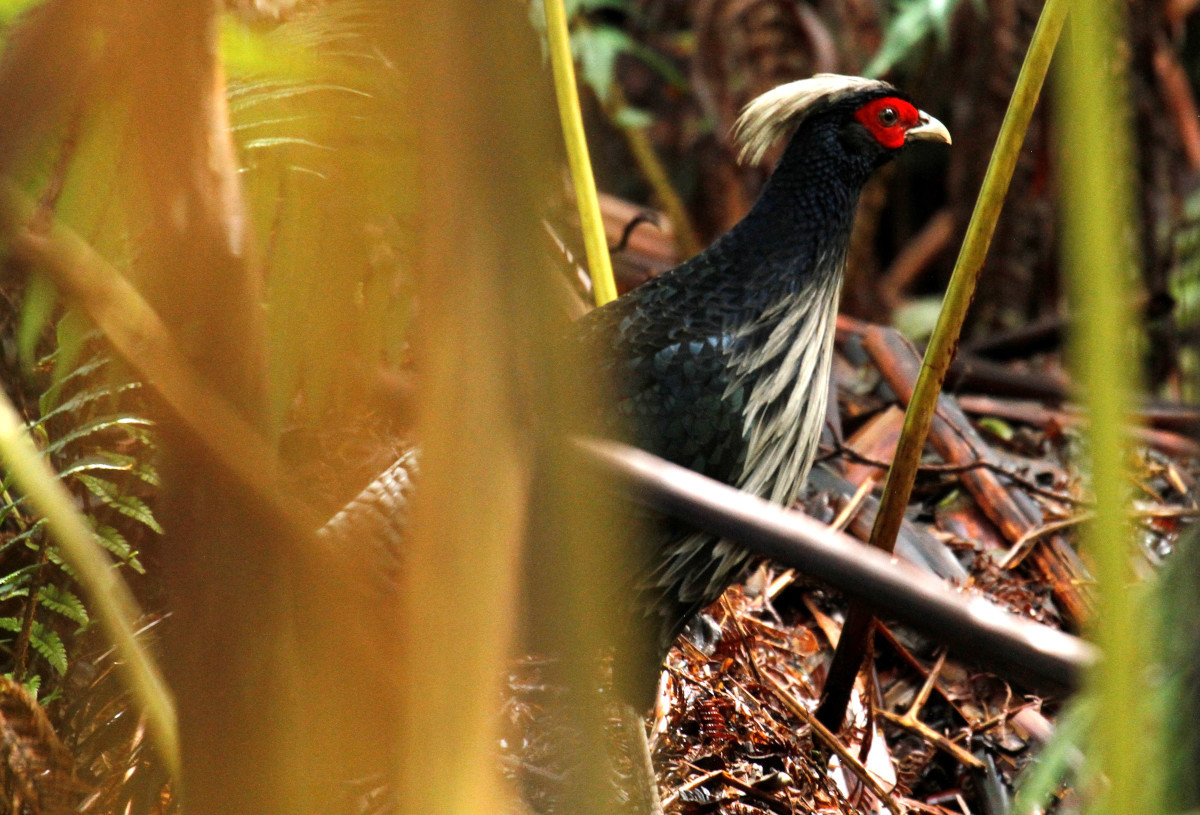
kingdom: Animalia
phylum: Chordata
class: Aves
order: Galliformes
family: Phasianidae
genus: Lophura
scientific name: Lophura leucomelanos
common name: Kalij pheasant
